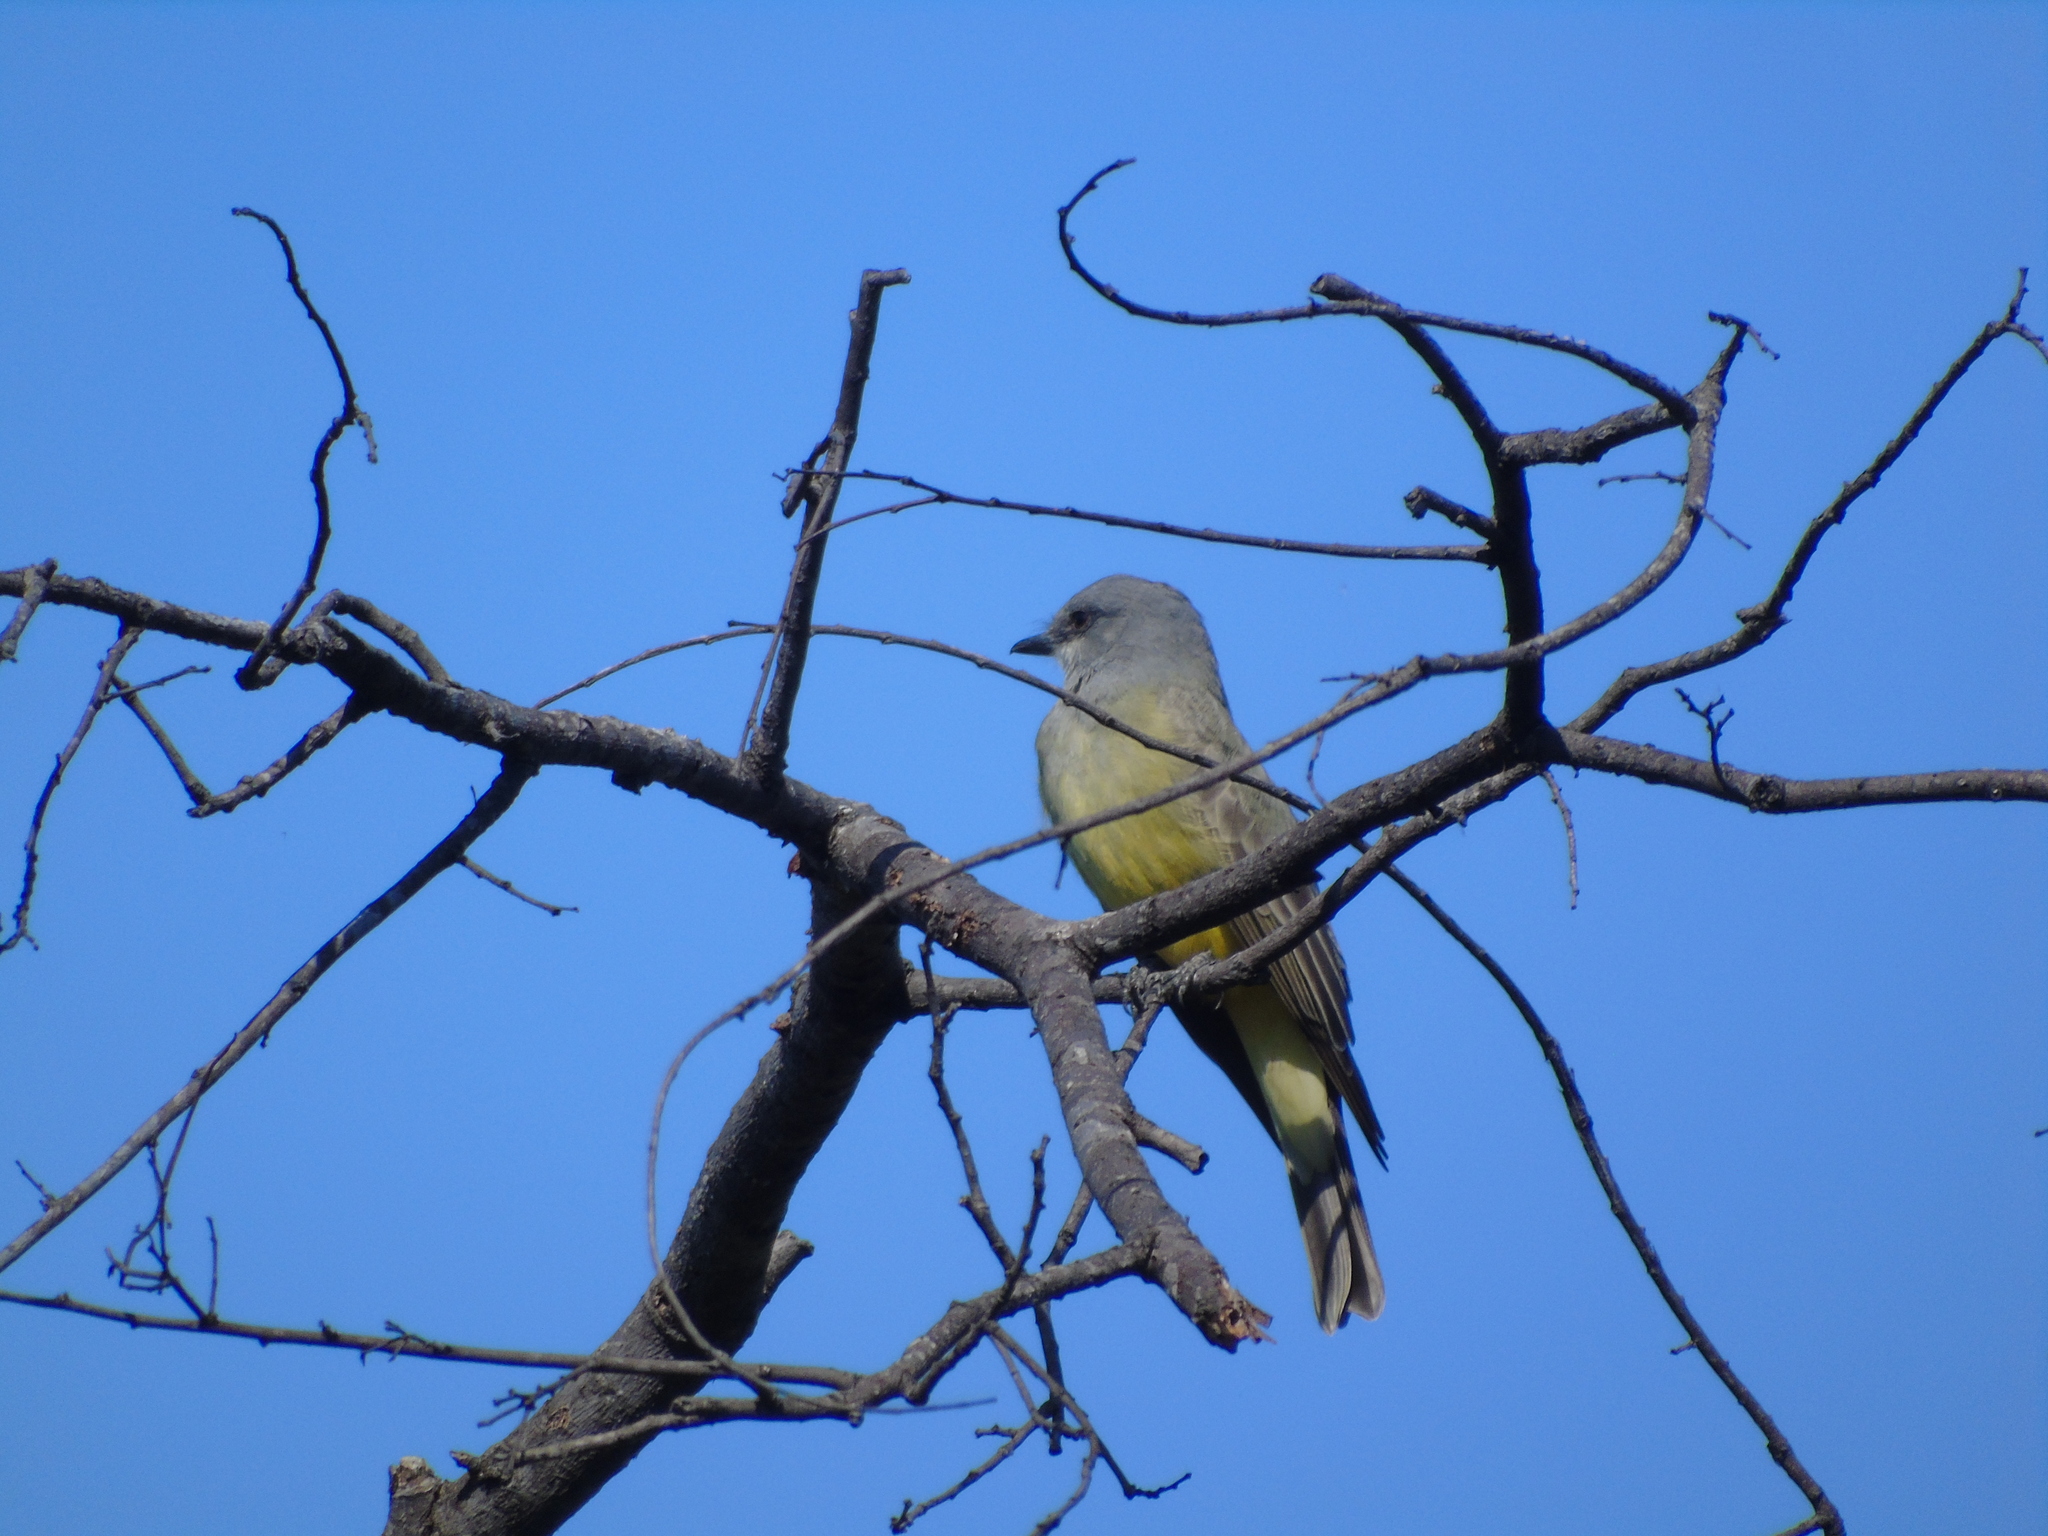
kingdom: Animalia
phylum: Chordata
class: Aves
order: Passeriformes
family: Tyrannidae
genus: Tyrannus
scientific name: Tyrannus vociferans
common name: Cassin's kingbird
